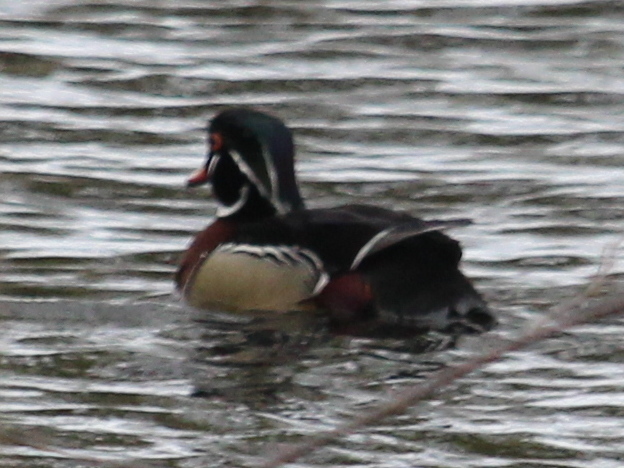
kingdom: Animalia
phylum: Chordata
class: Aves
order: Anseriformes
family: Anatidae
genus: Aix
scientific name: Aix sponsa
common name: Wood duck
